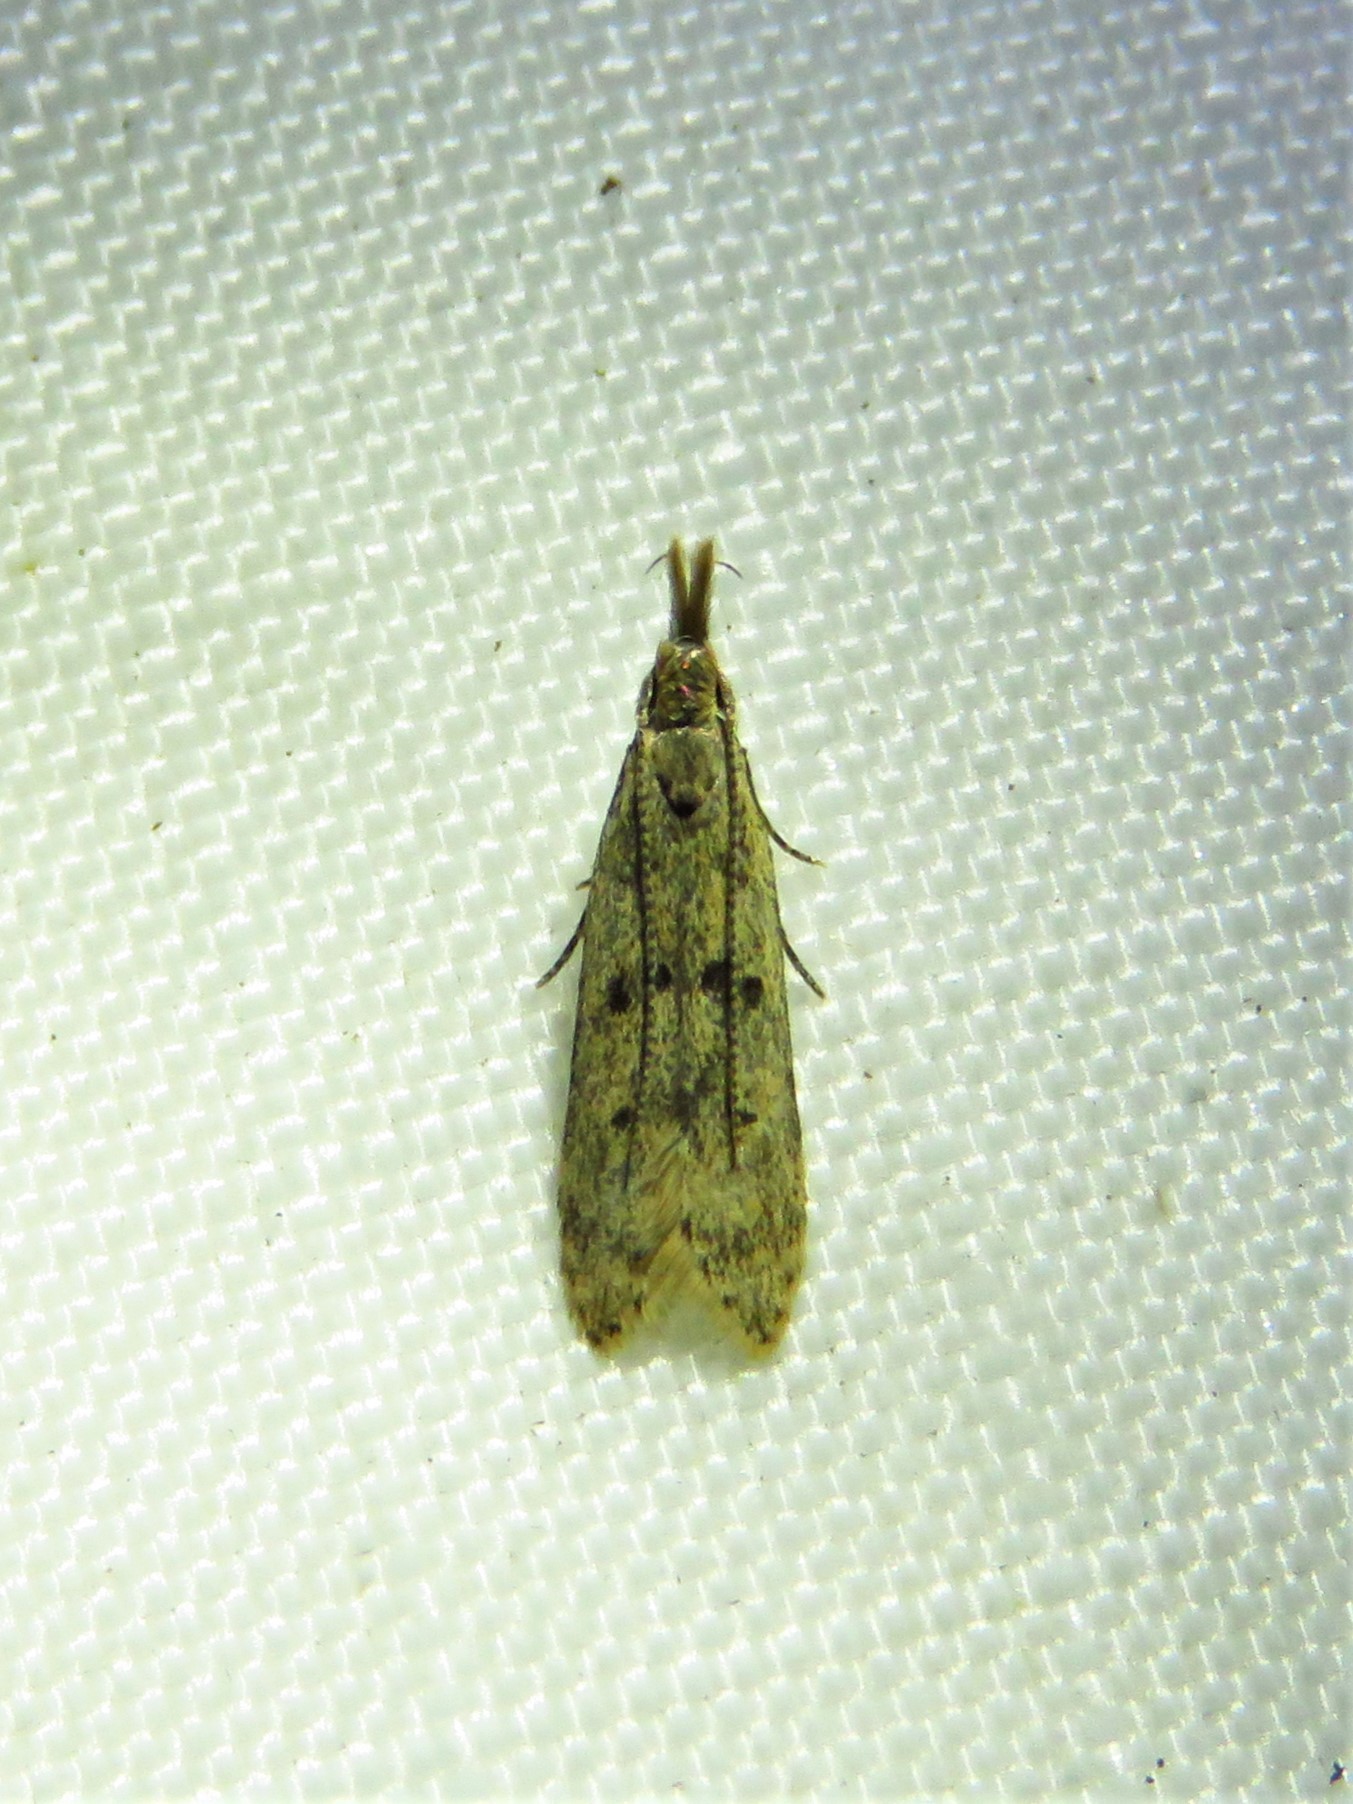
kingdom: Animalia
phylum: Arthropoda
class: Insecta
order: Lepidoptera
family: Gelechiidae
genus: Dichomeris
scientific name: Dichomeris punctipennella
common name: Many-spotted dichomeris moth
